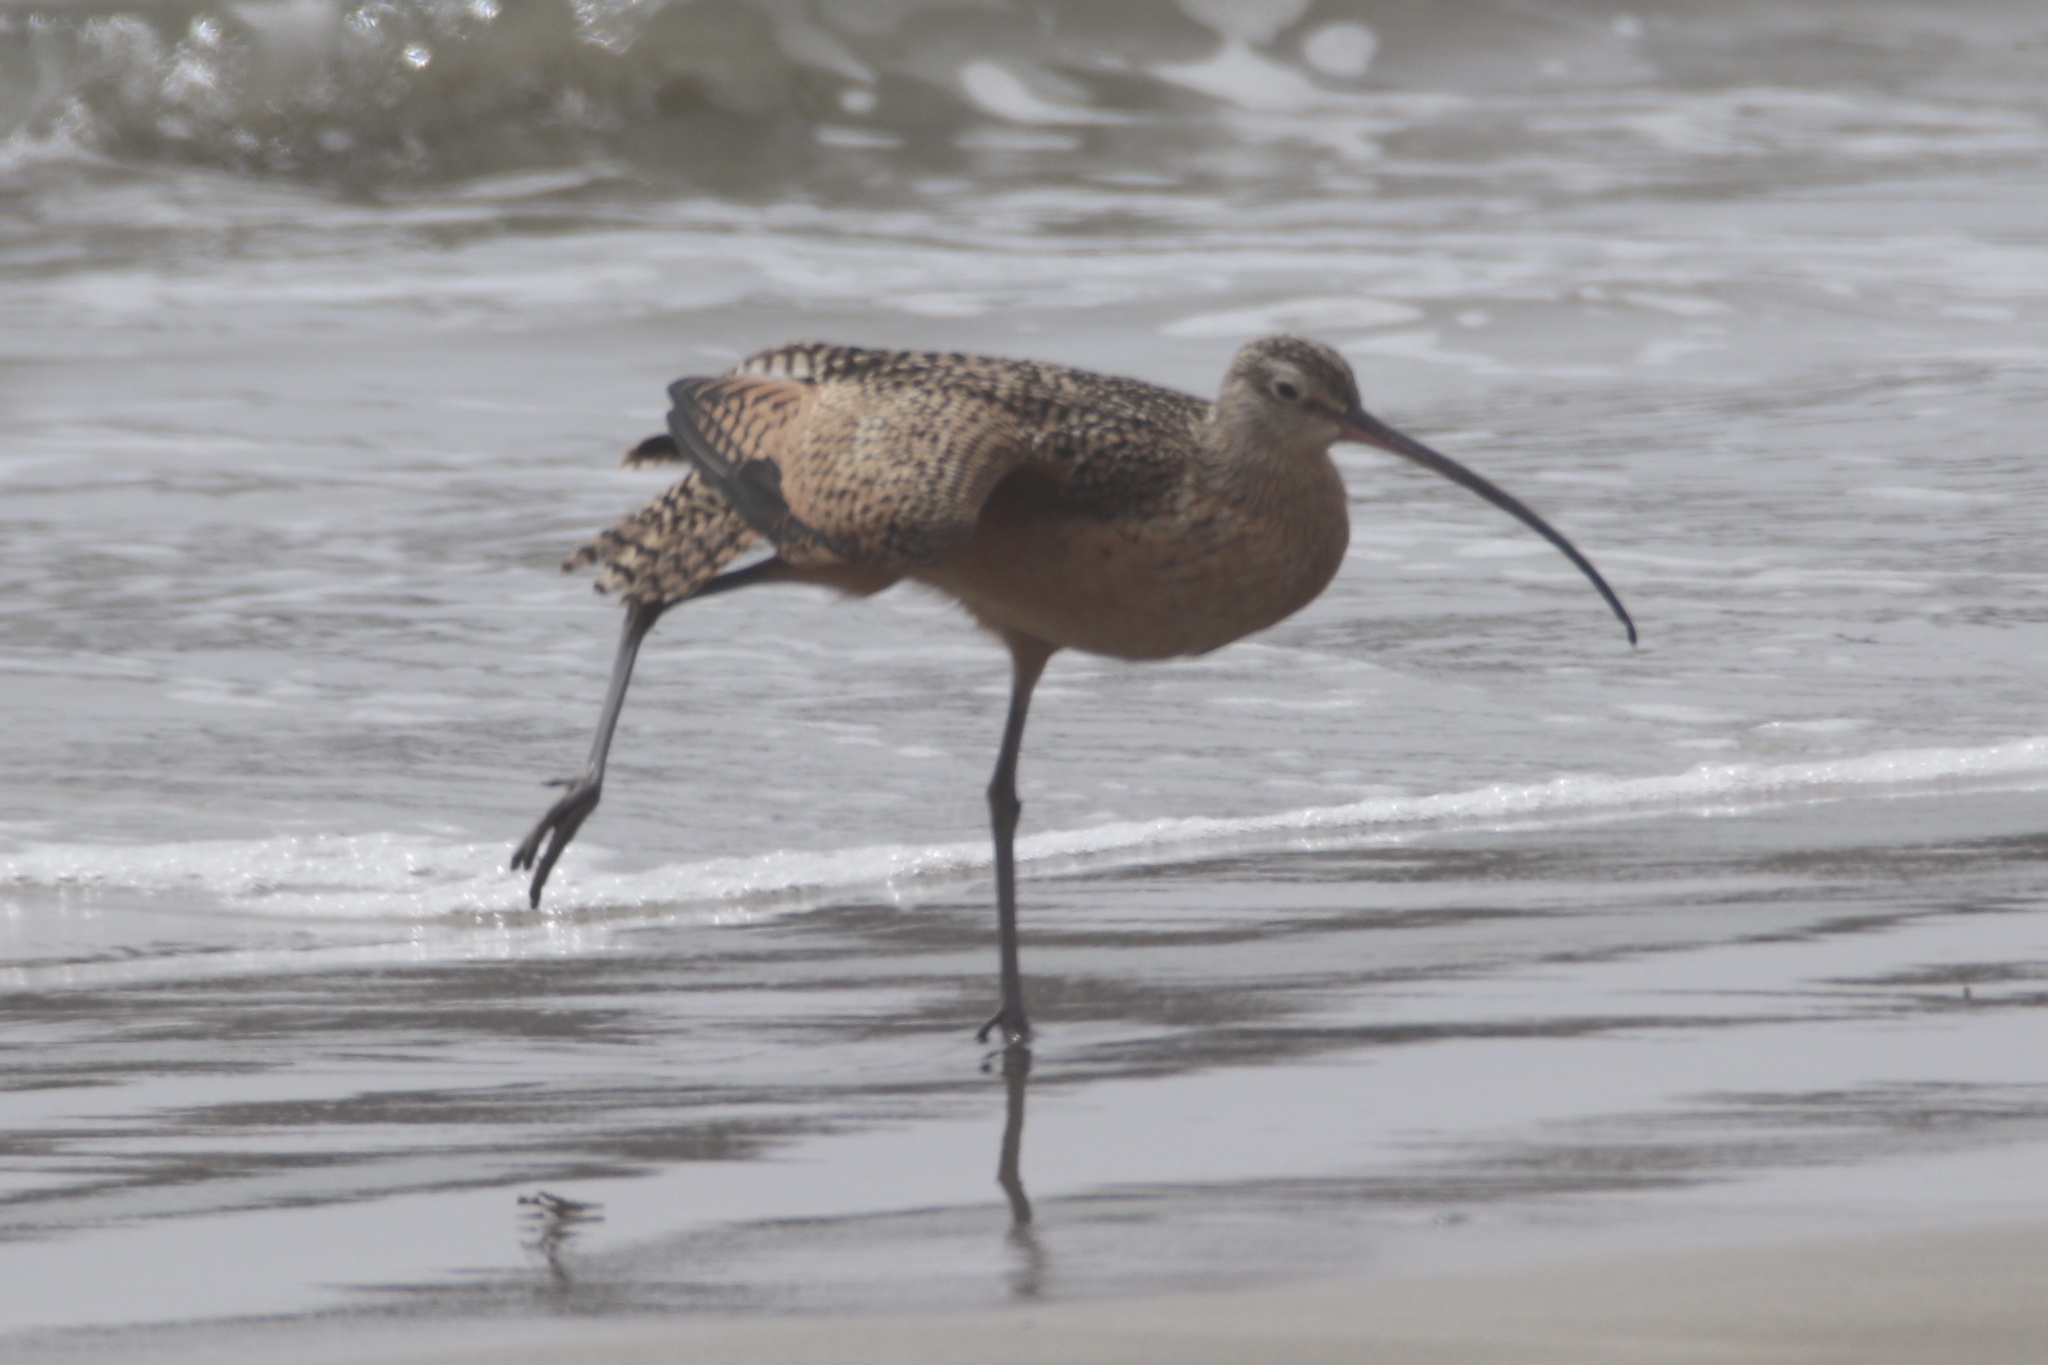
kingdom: Animalia
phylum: Chordata
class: Aves
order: Charadriiformes
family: Scolopacidae
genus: Numenius
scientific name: Numenius americanus
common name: Long-billed curlew
